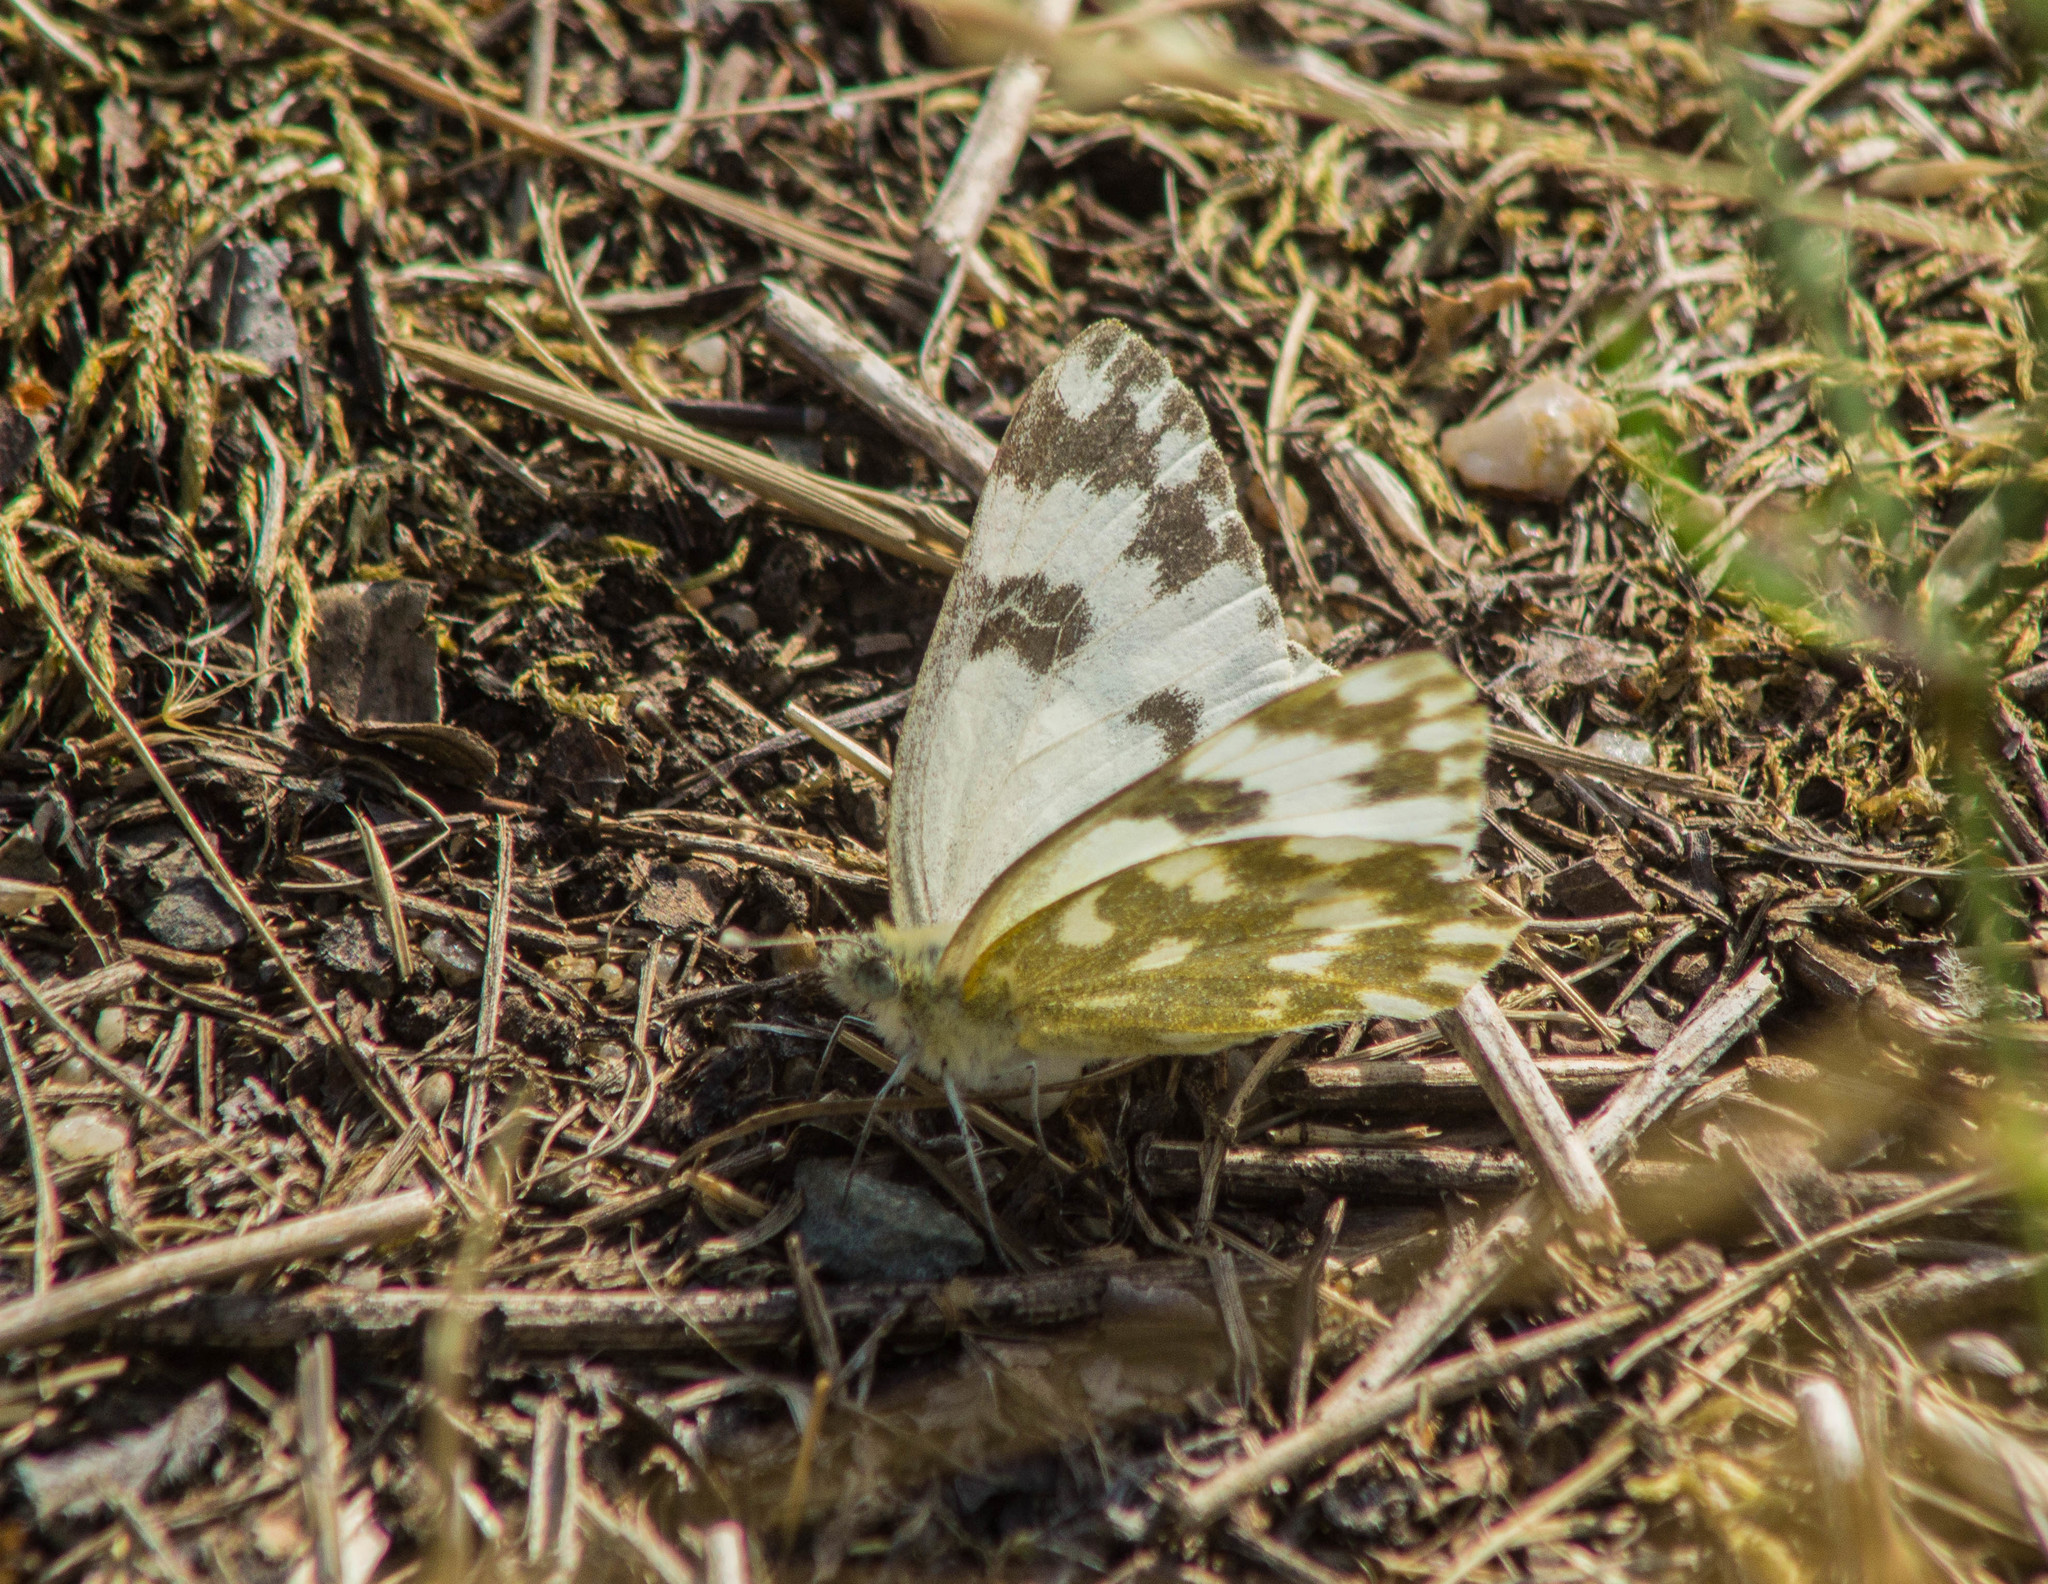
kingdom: Animalia
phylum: Arthropoda
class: Insecta
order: Lepidoptera
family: Pieridae
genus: Pontia
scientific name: Pontia edusa
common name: Eastern bath white
